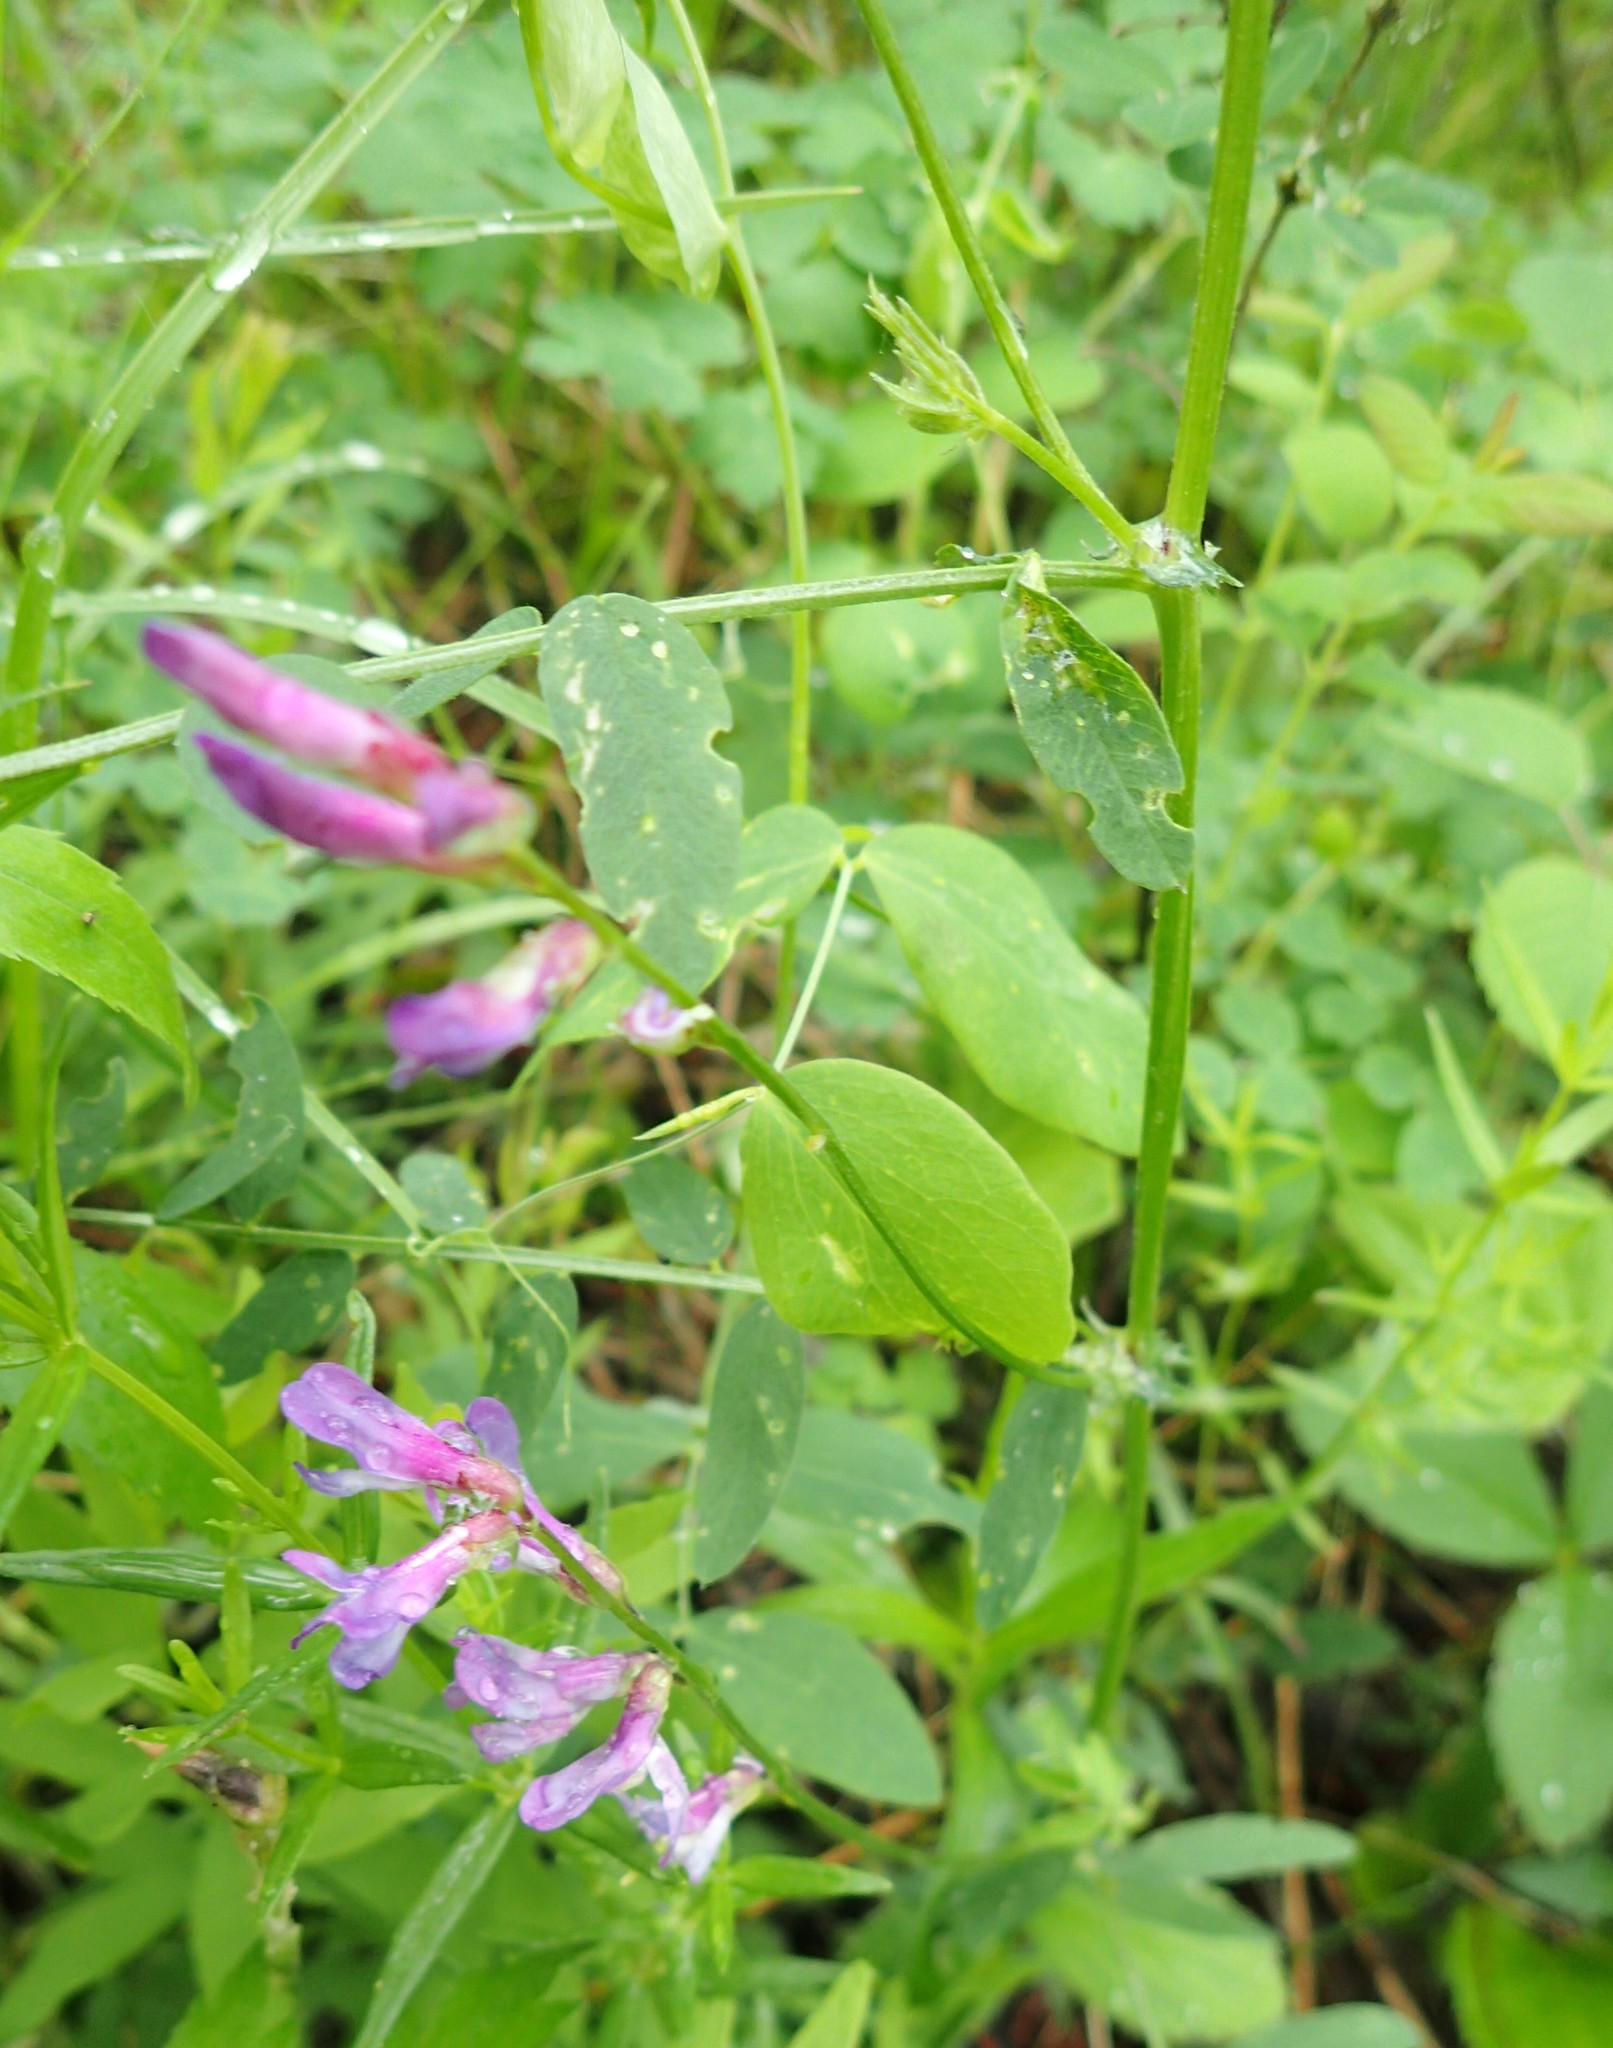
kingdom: Plantae
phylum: Tracheophyta
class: Magnoliopsida
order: Fabales
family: Fabaceae
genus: Vicia
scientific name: Vicia americana
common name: American vetch
